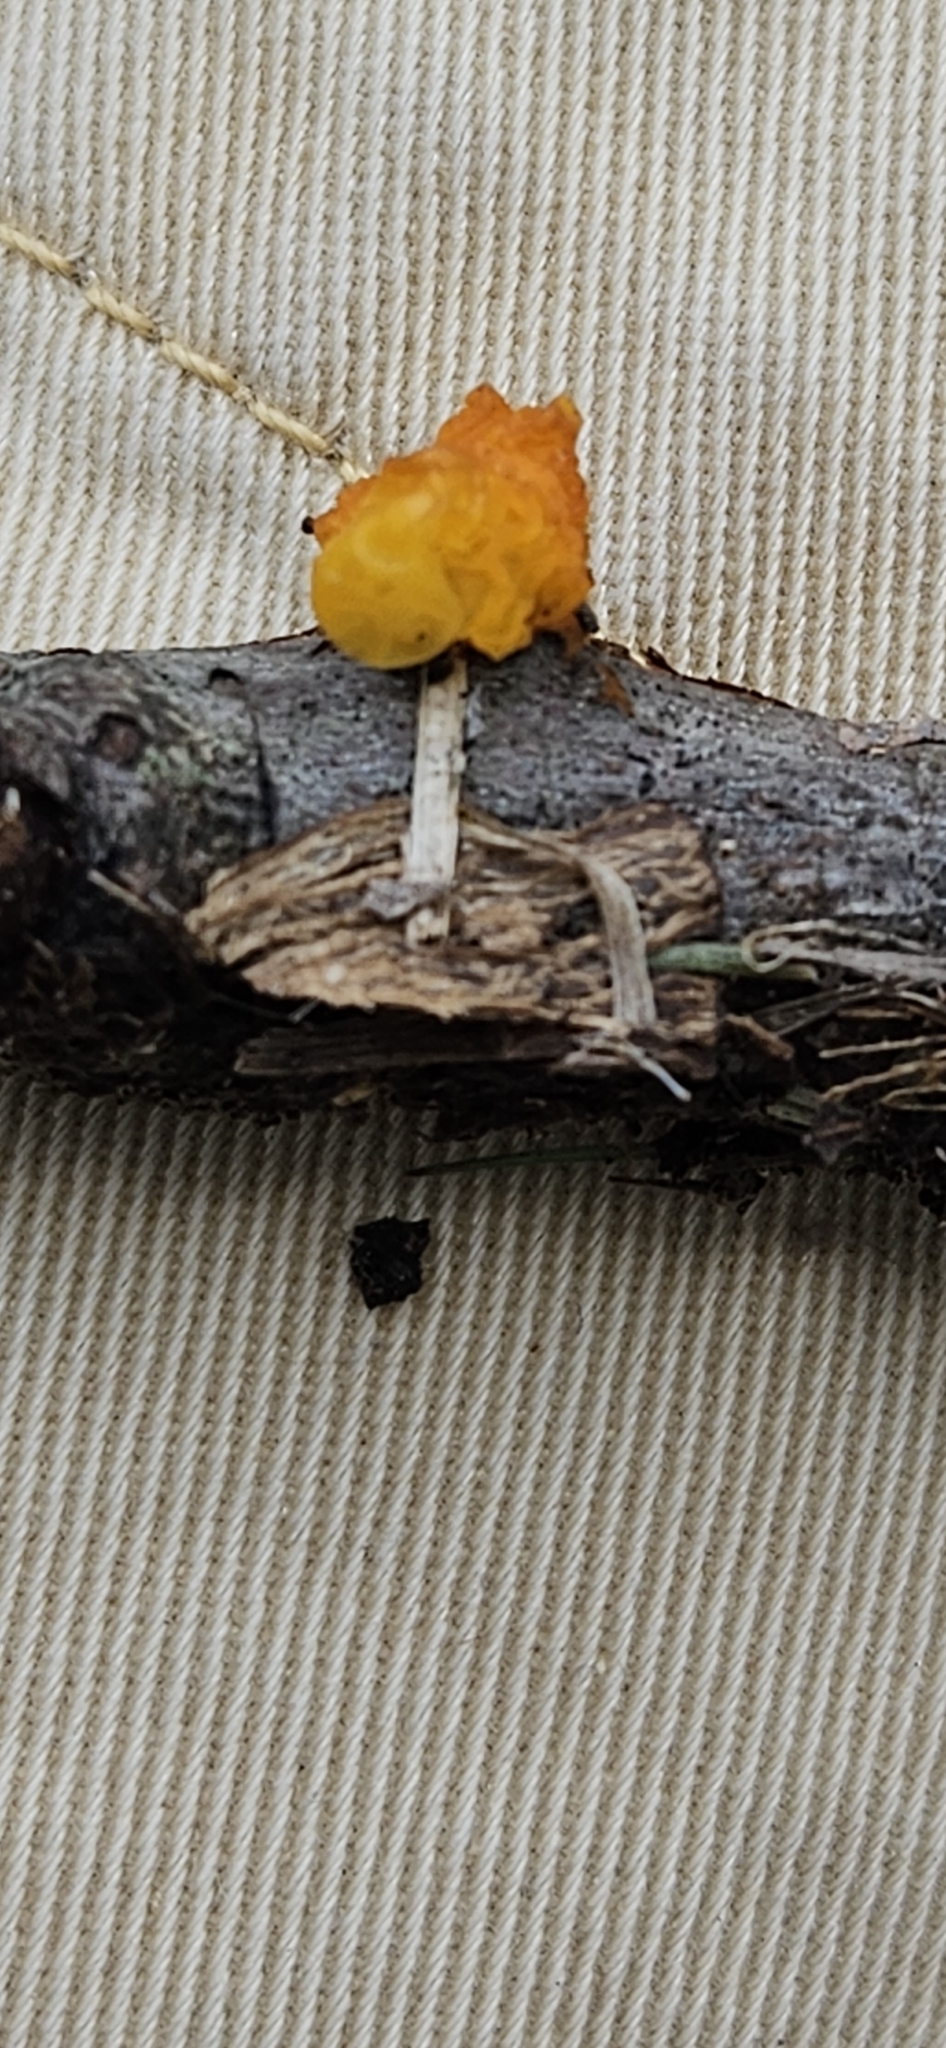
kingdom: Fungi
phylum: Basidiomycota
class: Tremellomycetes
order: Tremellales
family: Tremellaceae
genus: Tremella
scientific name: Tremella mesenterica
